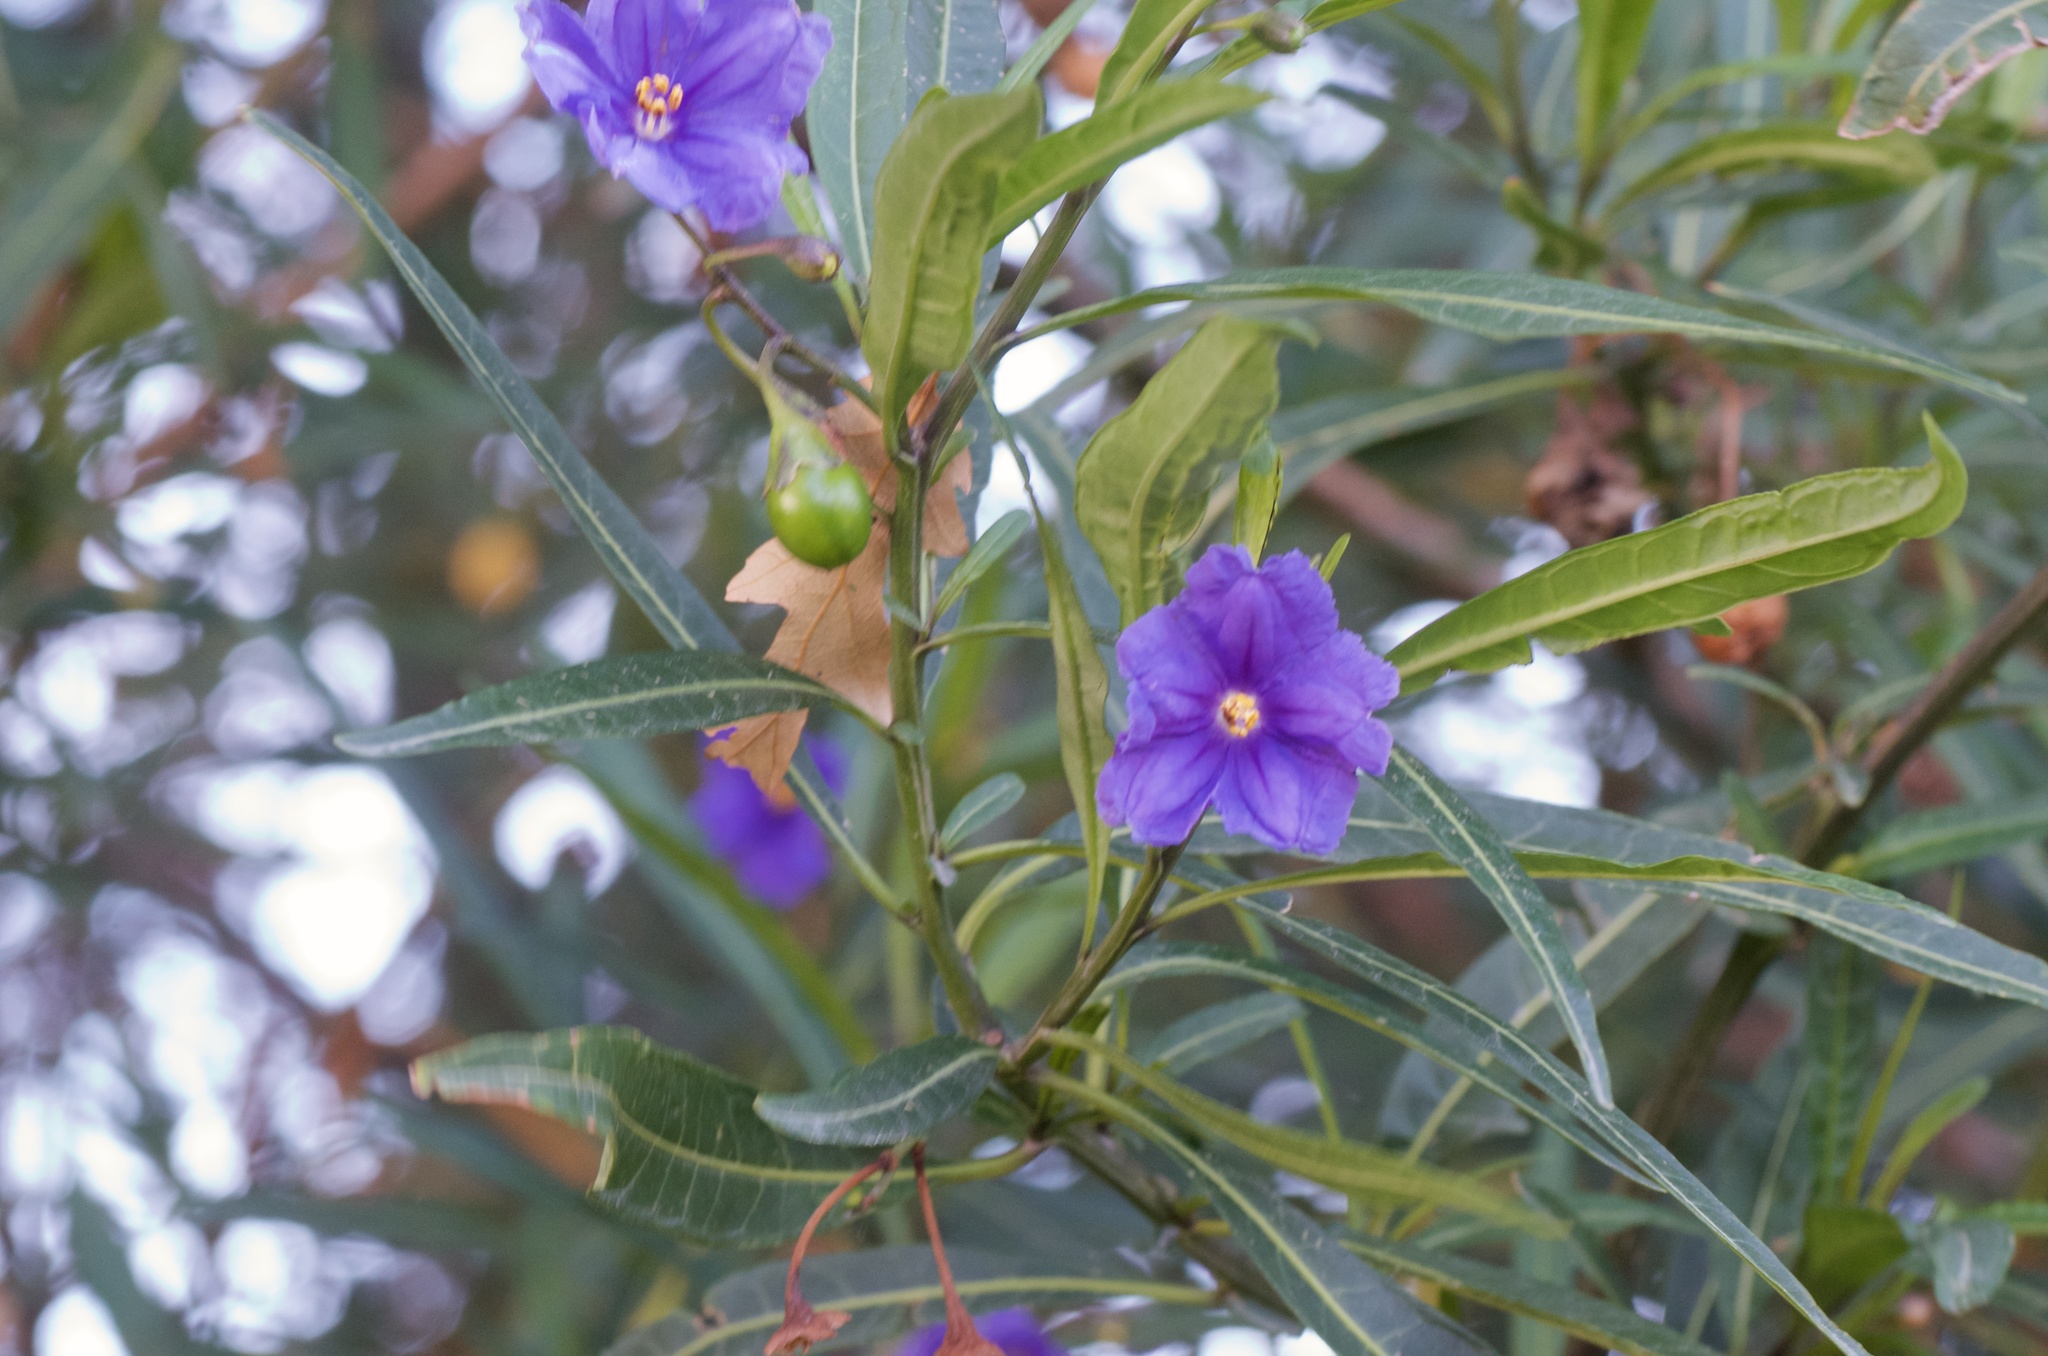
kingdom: Plantae
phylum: Tracheophyta
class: Magnoliopsida
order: Solanales
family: Solanaceae
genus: Solanum
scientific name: Solanum laciniatum
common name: Kangaroo-apple
